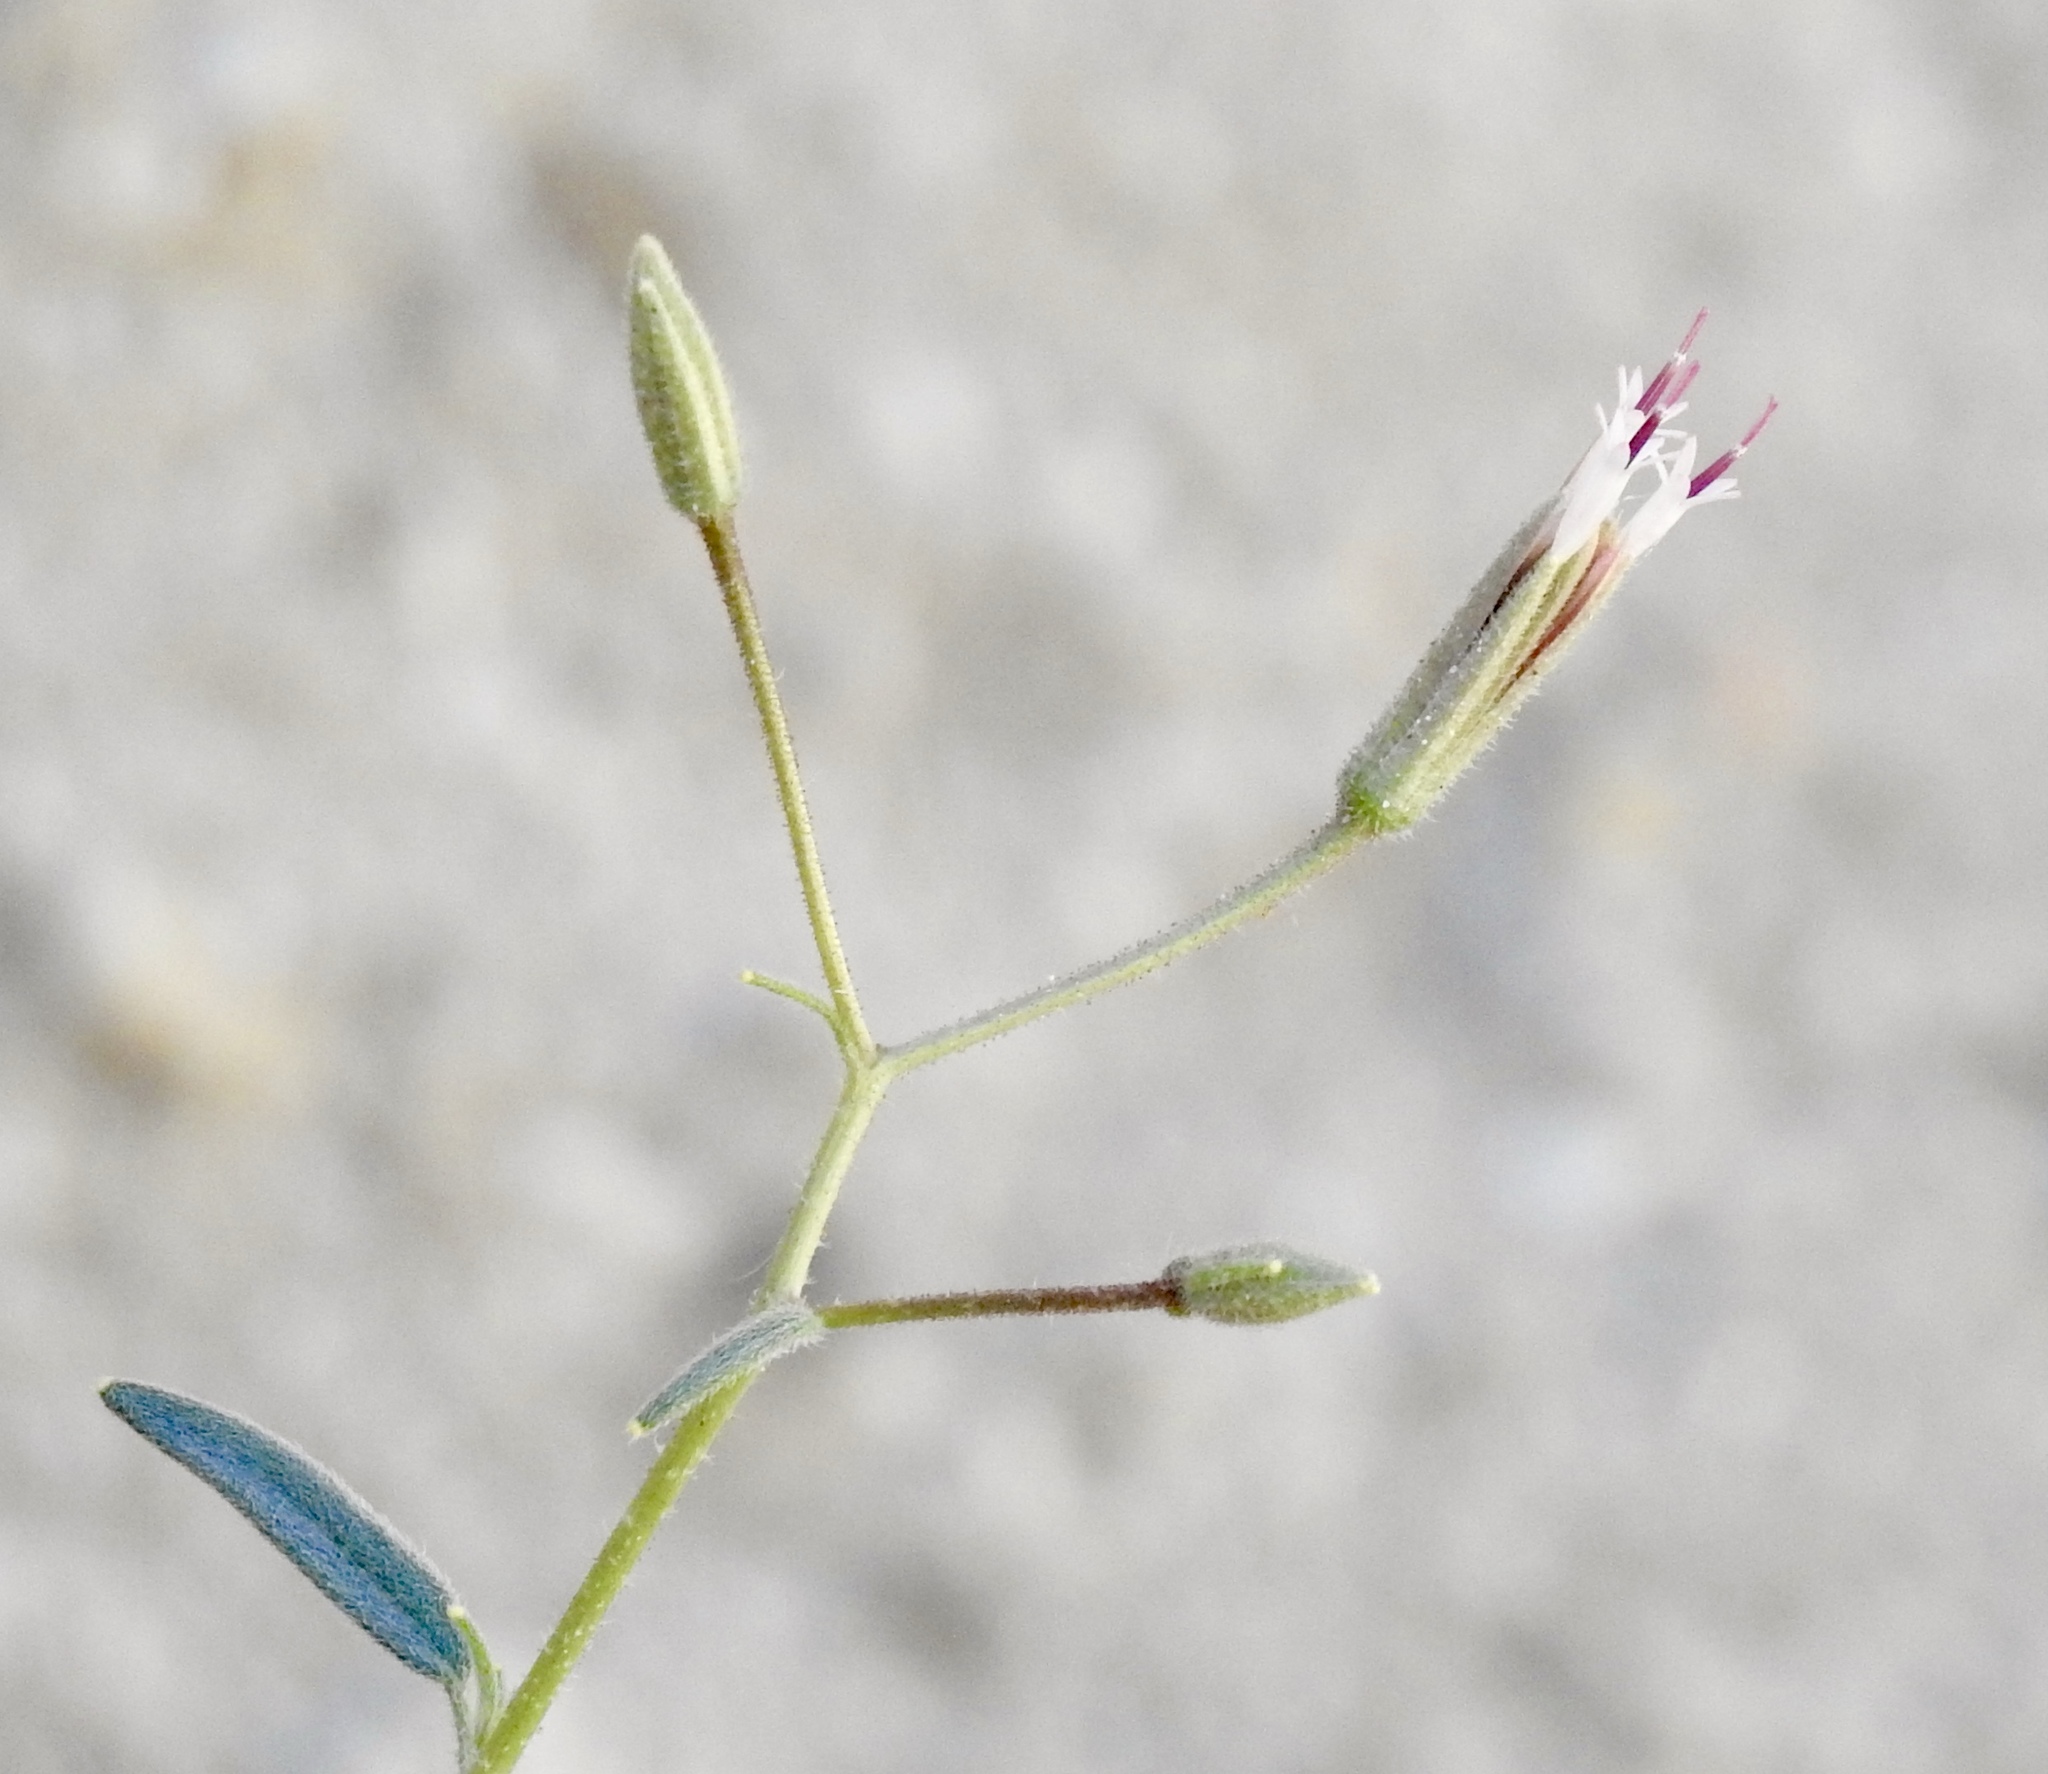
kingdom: Plantae
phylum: Tracheophyta
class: Magnoliopsida
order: Asterales
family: Asteraceae
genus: Palafoxia
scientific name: Palafoxia arida
